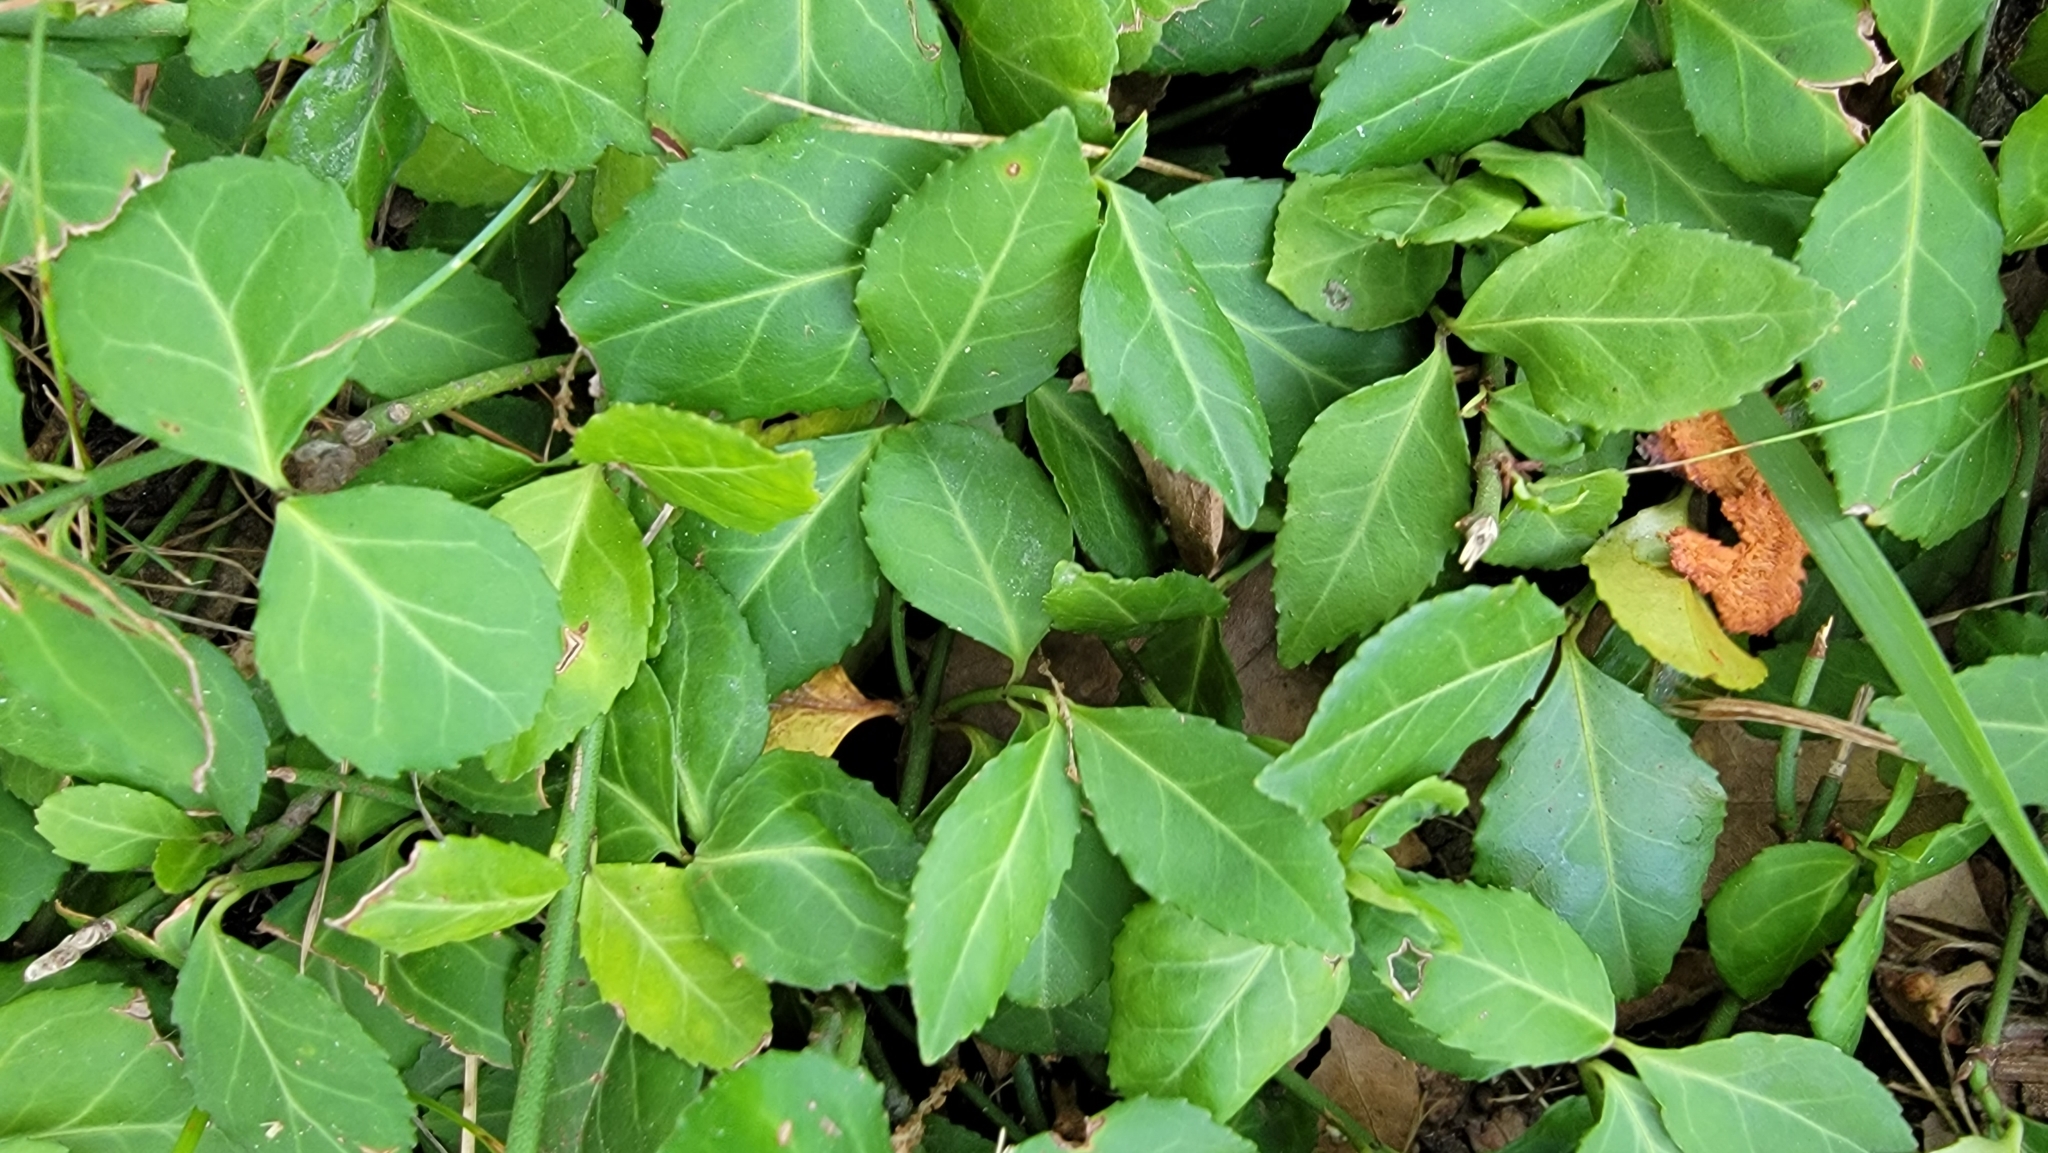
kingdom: Plantae
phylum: Tracheophyta
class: Magnoliopsida
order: Celastrales
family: Celastraceae
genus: Euonymus
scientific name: Euonymus fortunei
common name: Climbing euonymus
